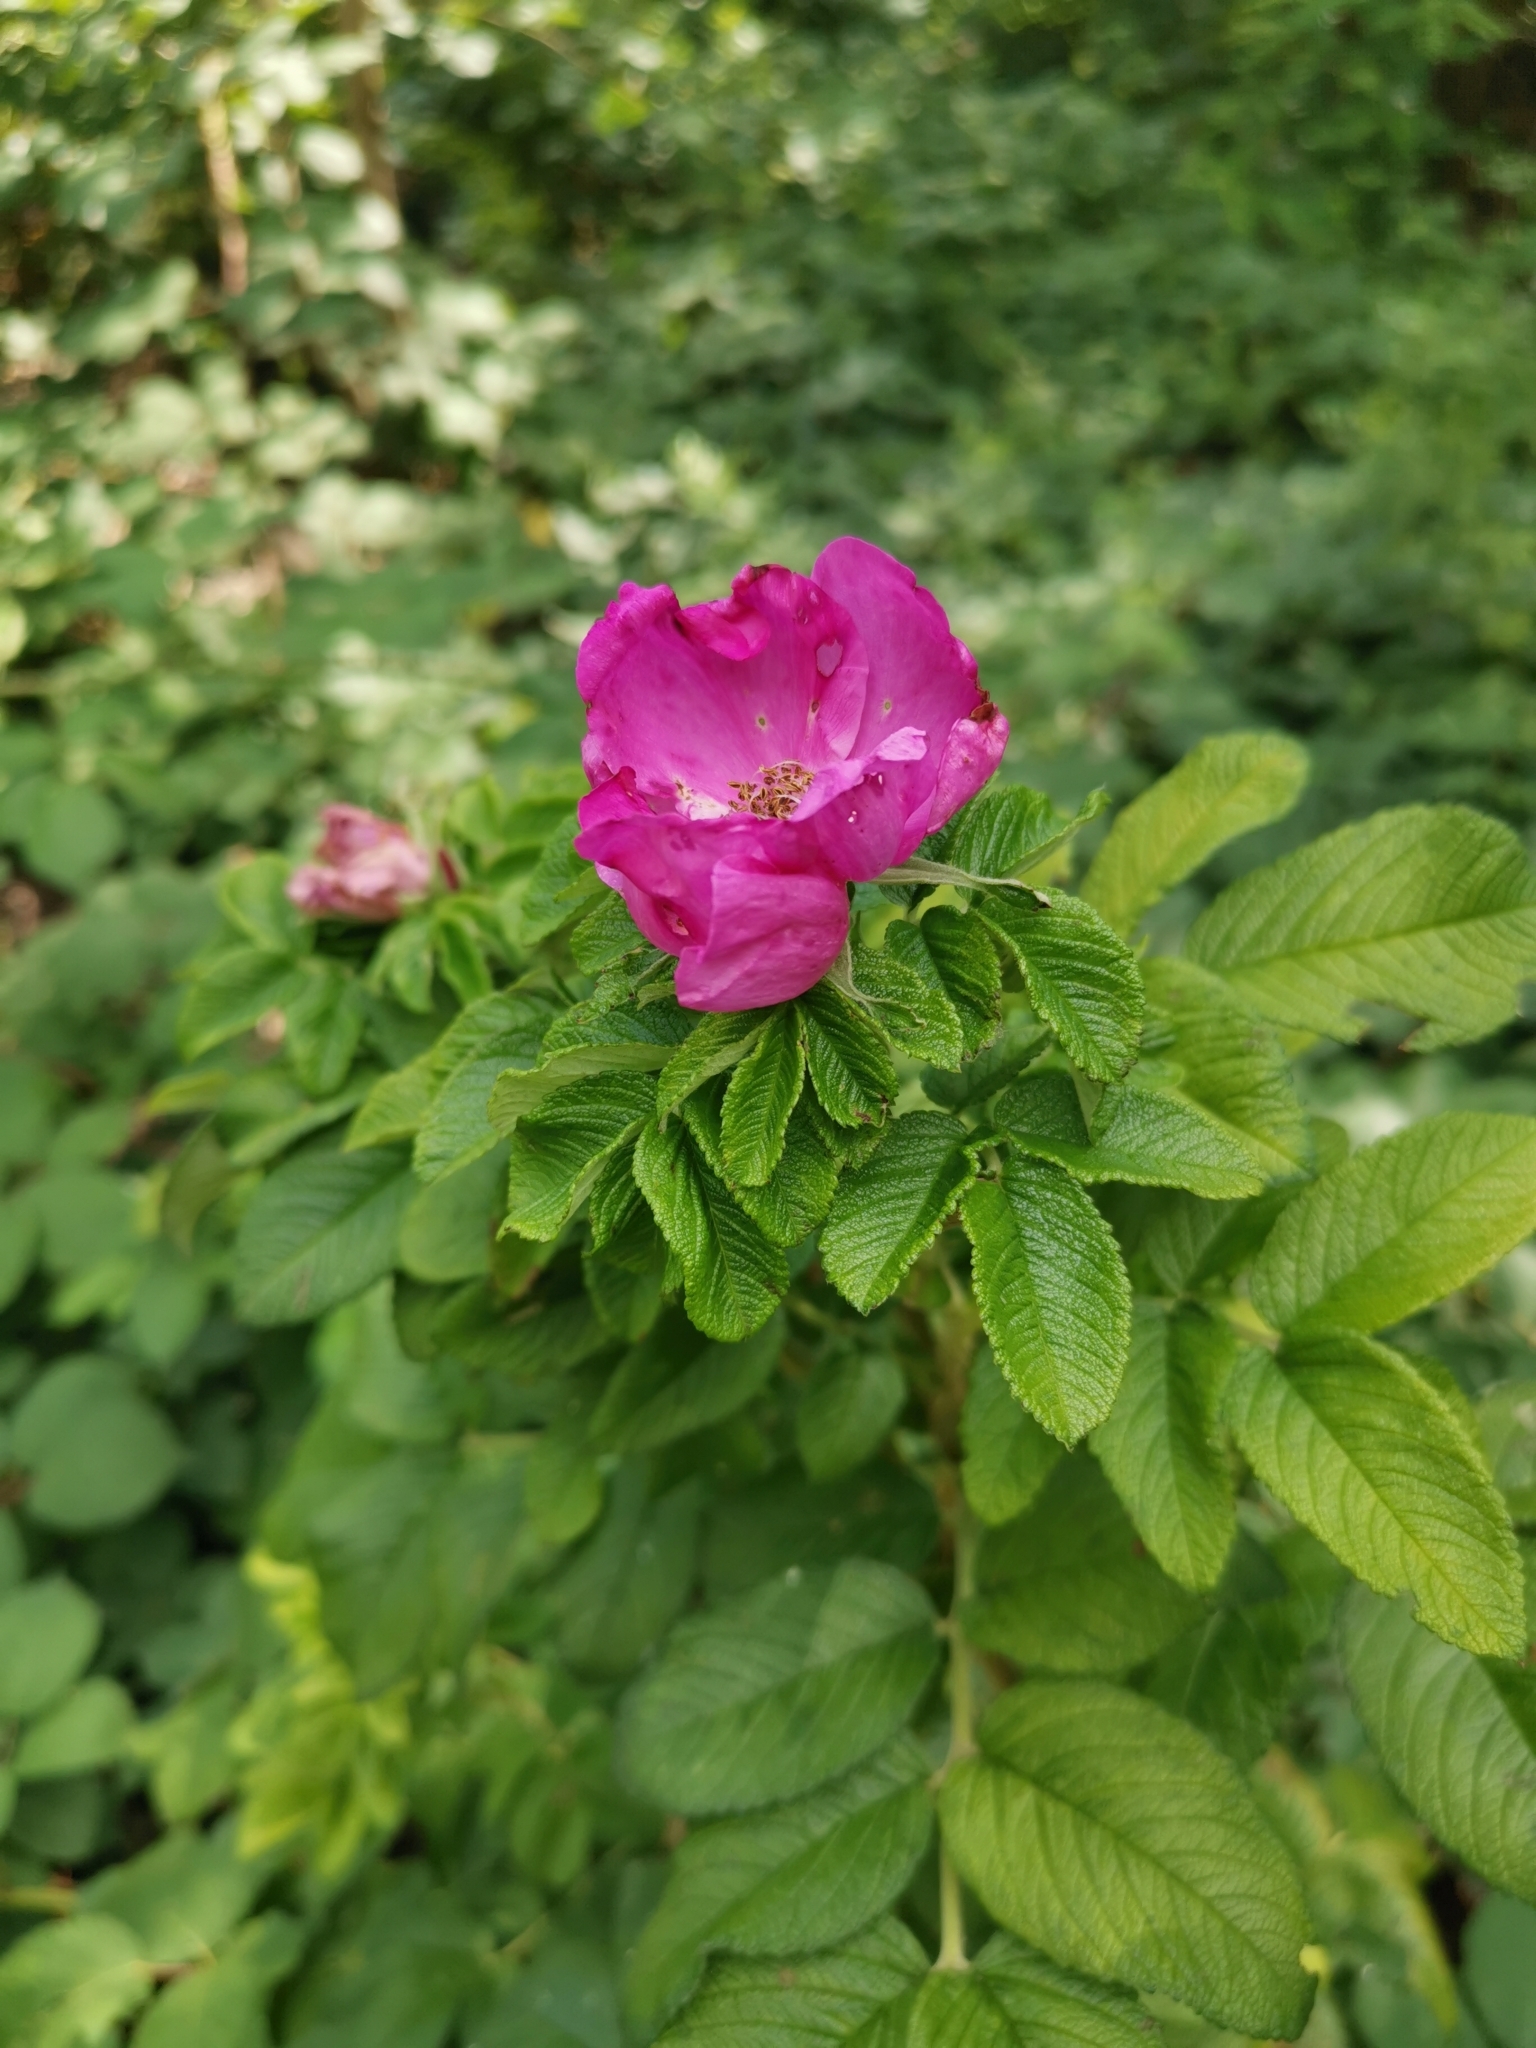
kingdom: Plantae
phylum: Tracheophyta
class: Magnoliopsida
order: Rosales
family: Rosaceae
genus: Rosa
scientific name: Rosa rugosa
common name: Japanese rose
